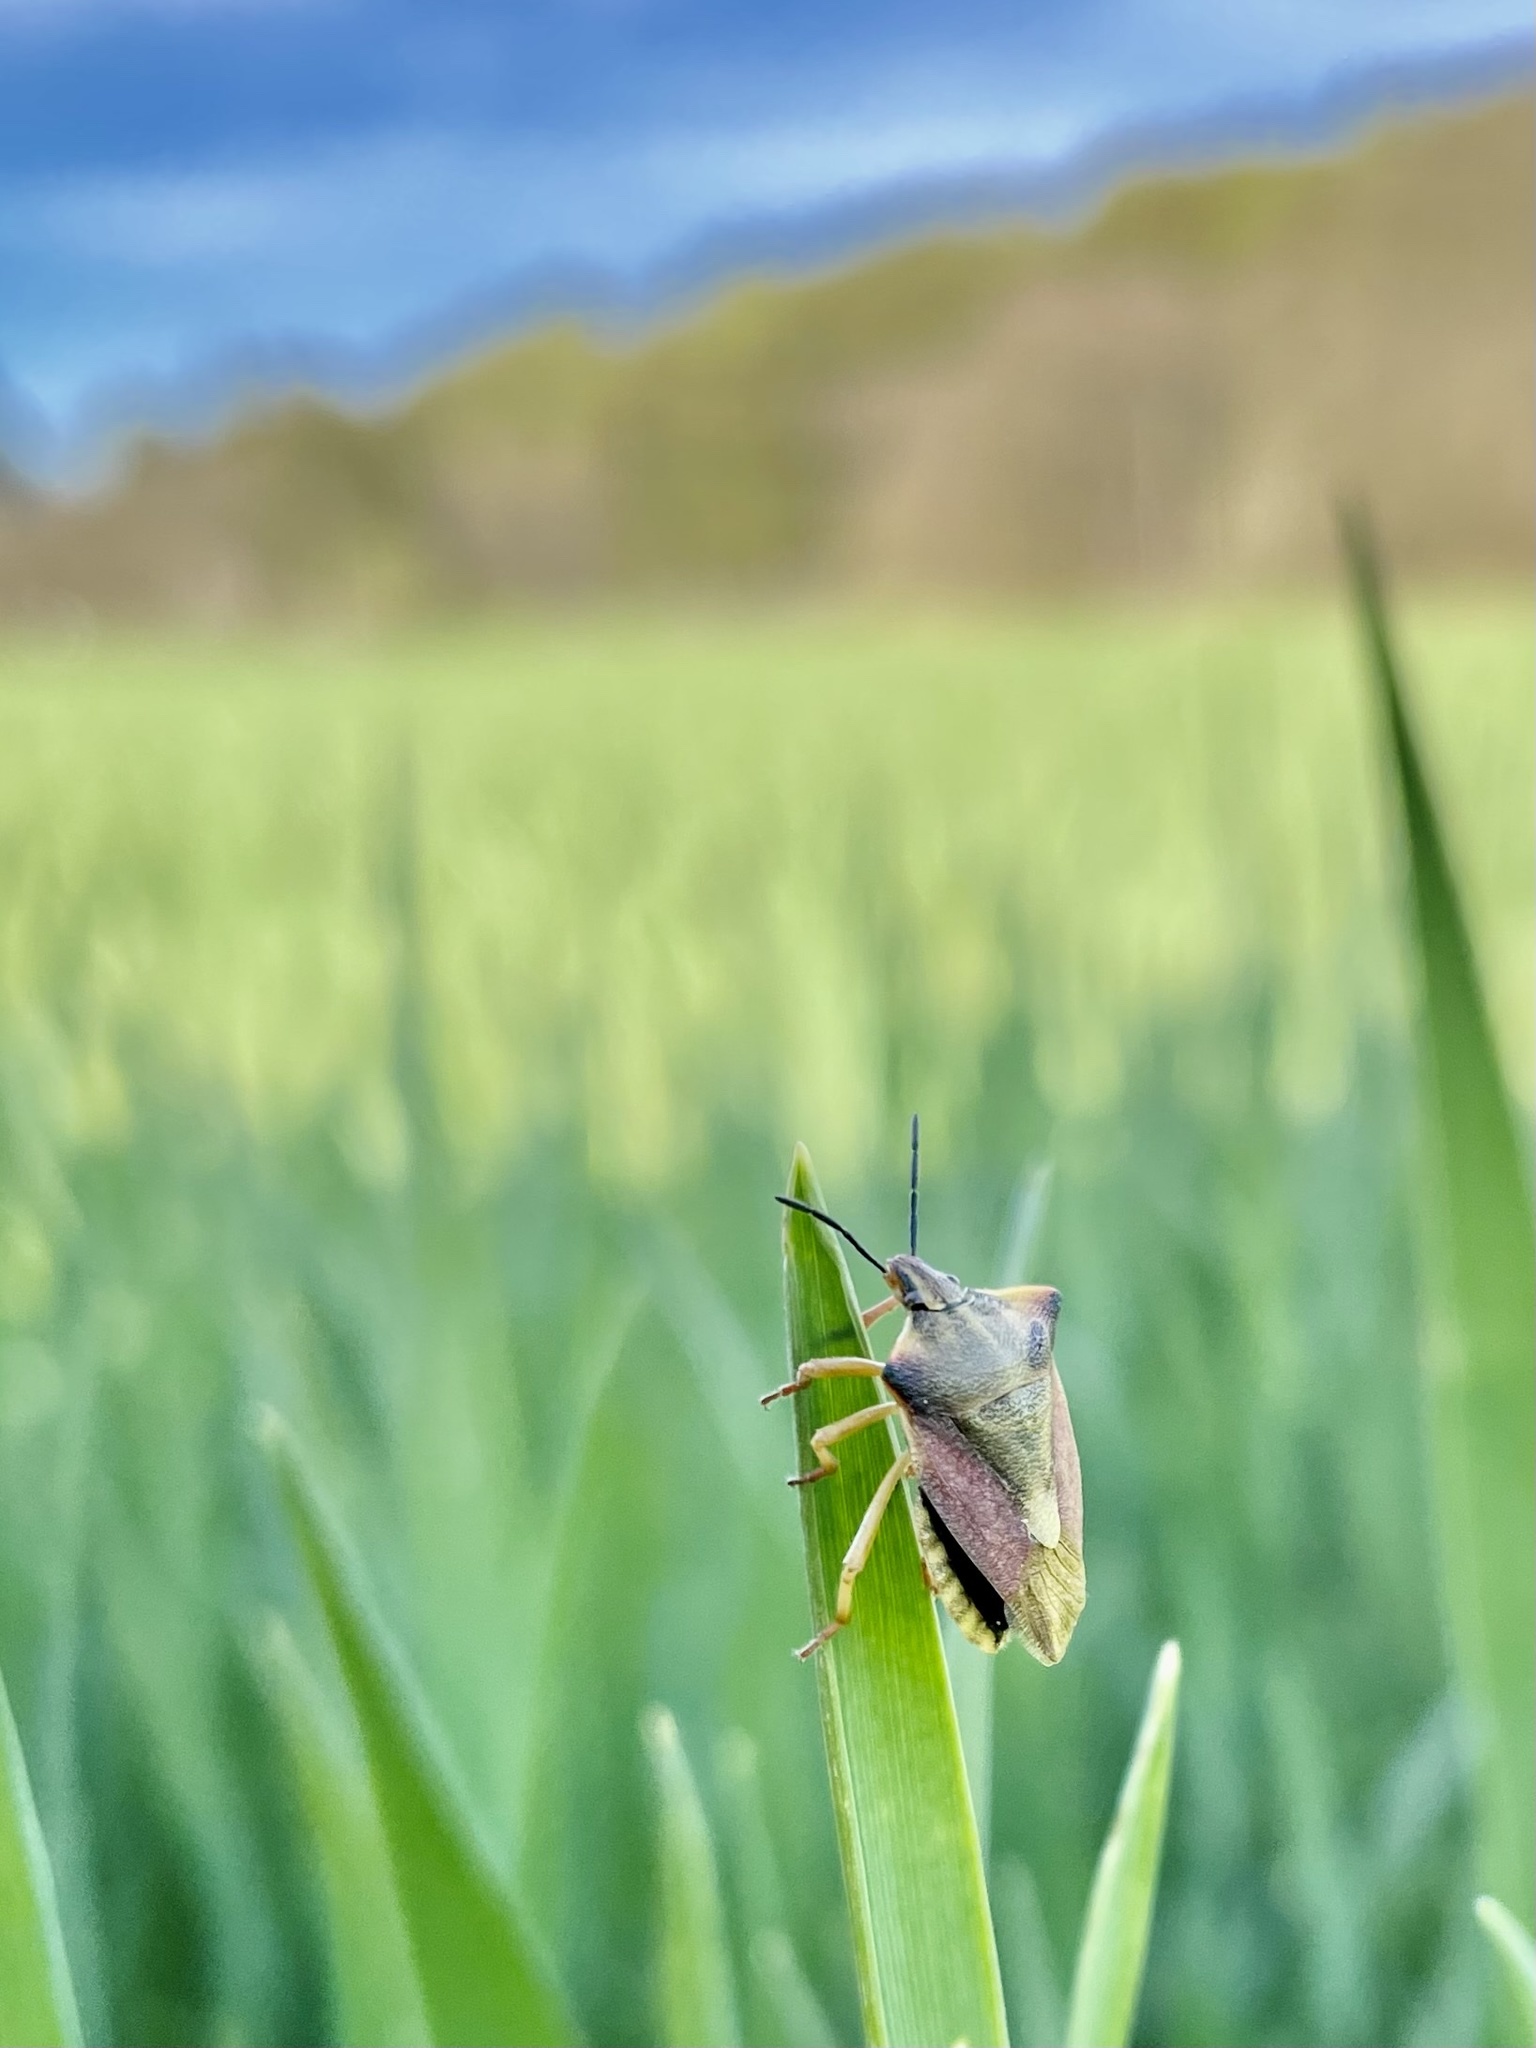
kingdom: Animalia
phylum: Arthropoda
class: Insecta
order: Hemiptera
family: Pentatomidae
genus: Carpocoris
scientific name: Carpocoris fuscispinus
